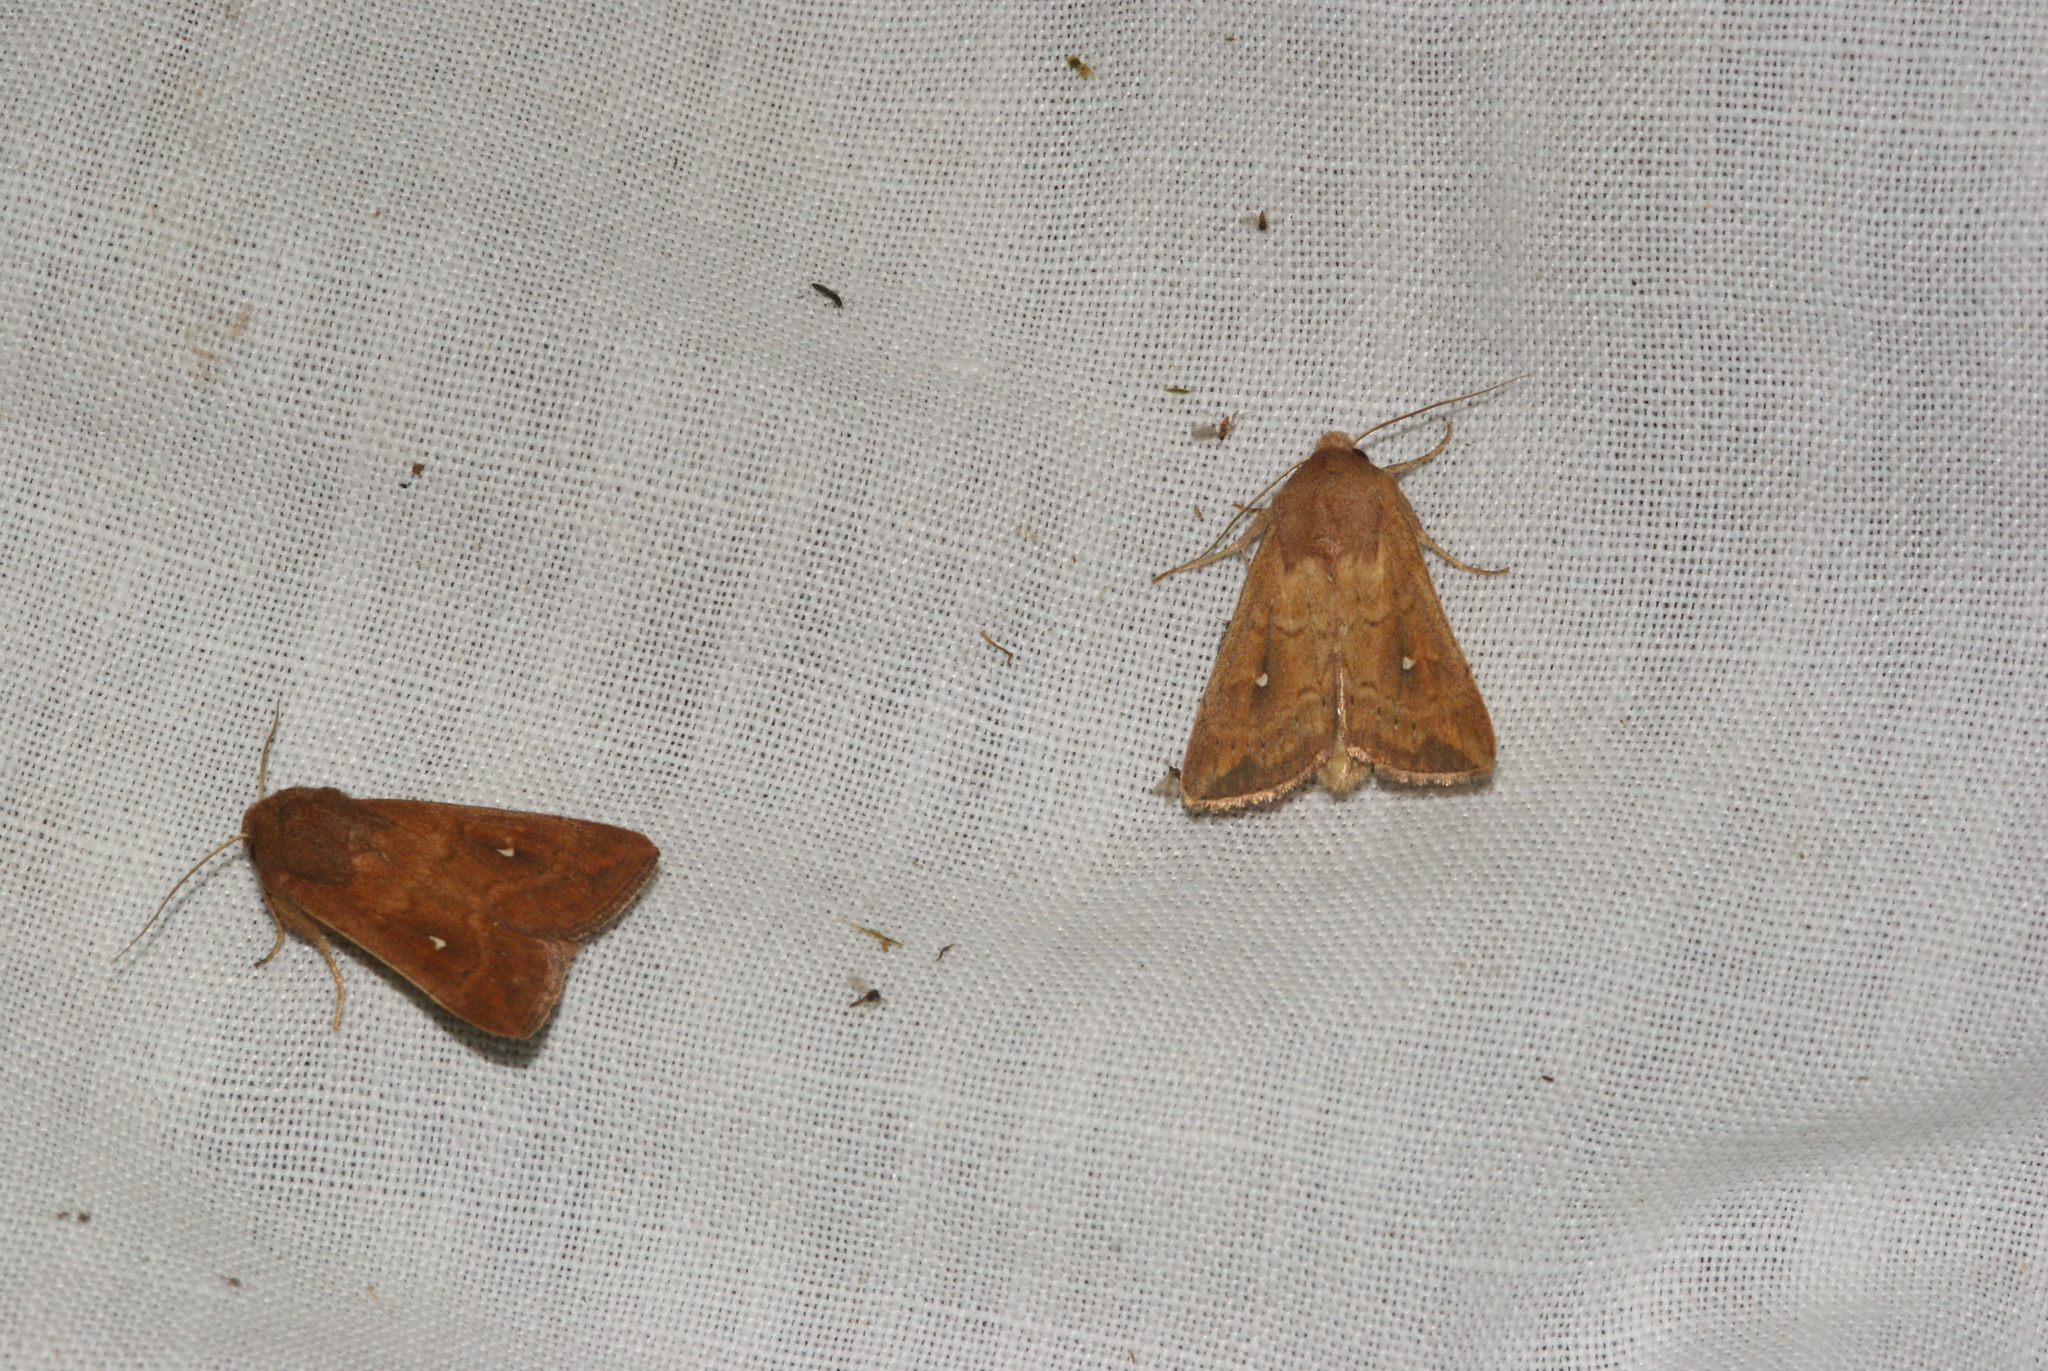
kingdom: Animalia
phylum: Arthropoda
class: Insecta
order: Lepidoptera
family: Noctuidae
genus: Mythimna
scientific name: Mythimna albipuncta
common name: White-point
